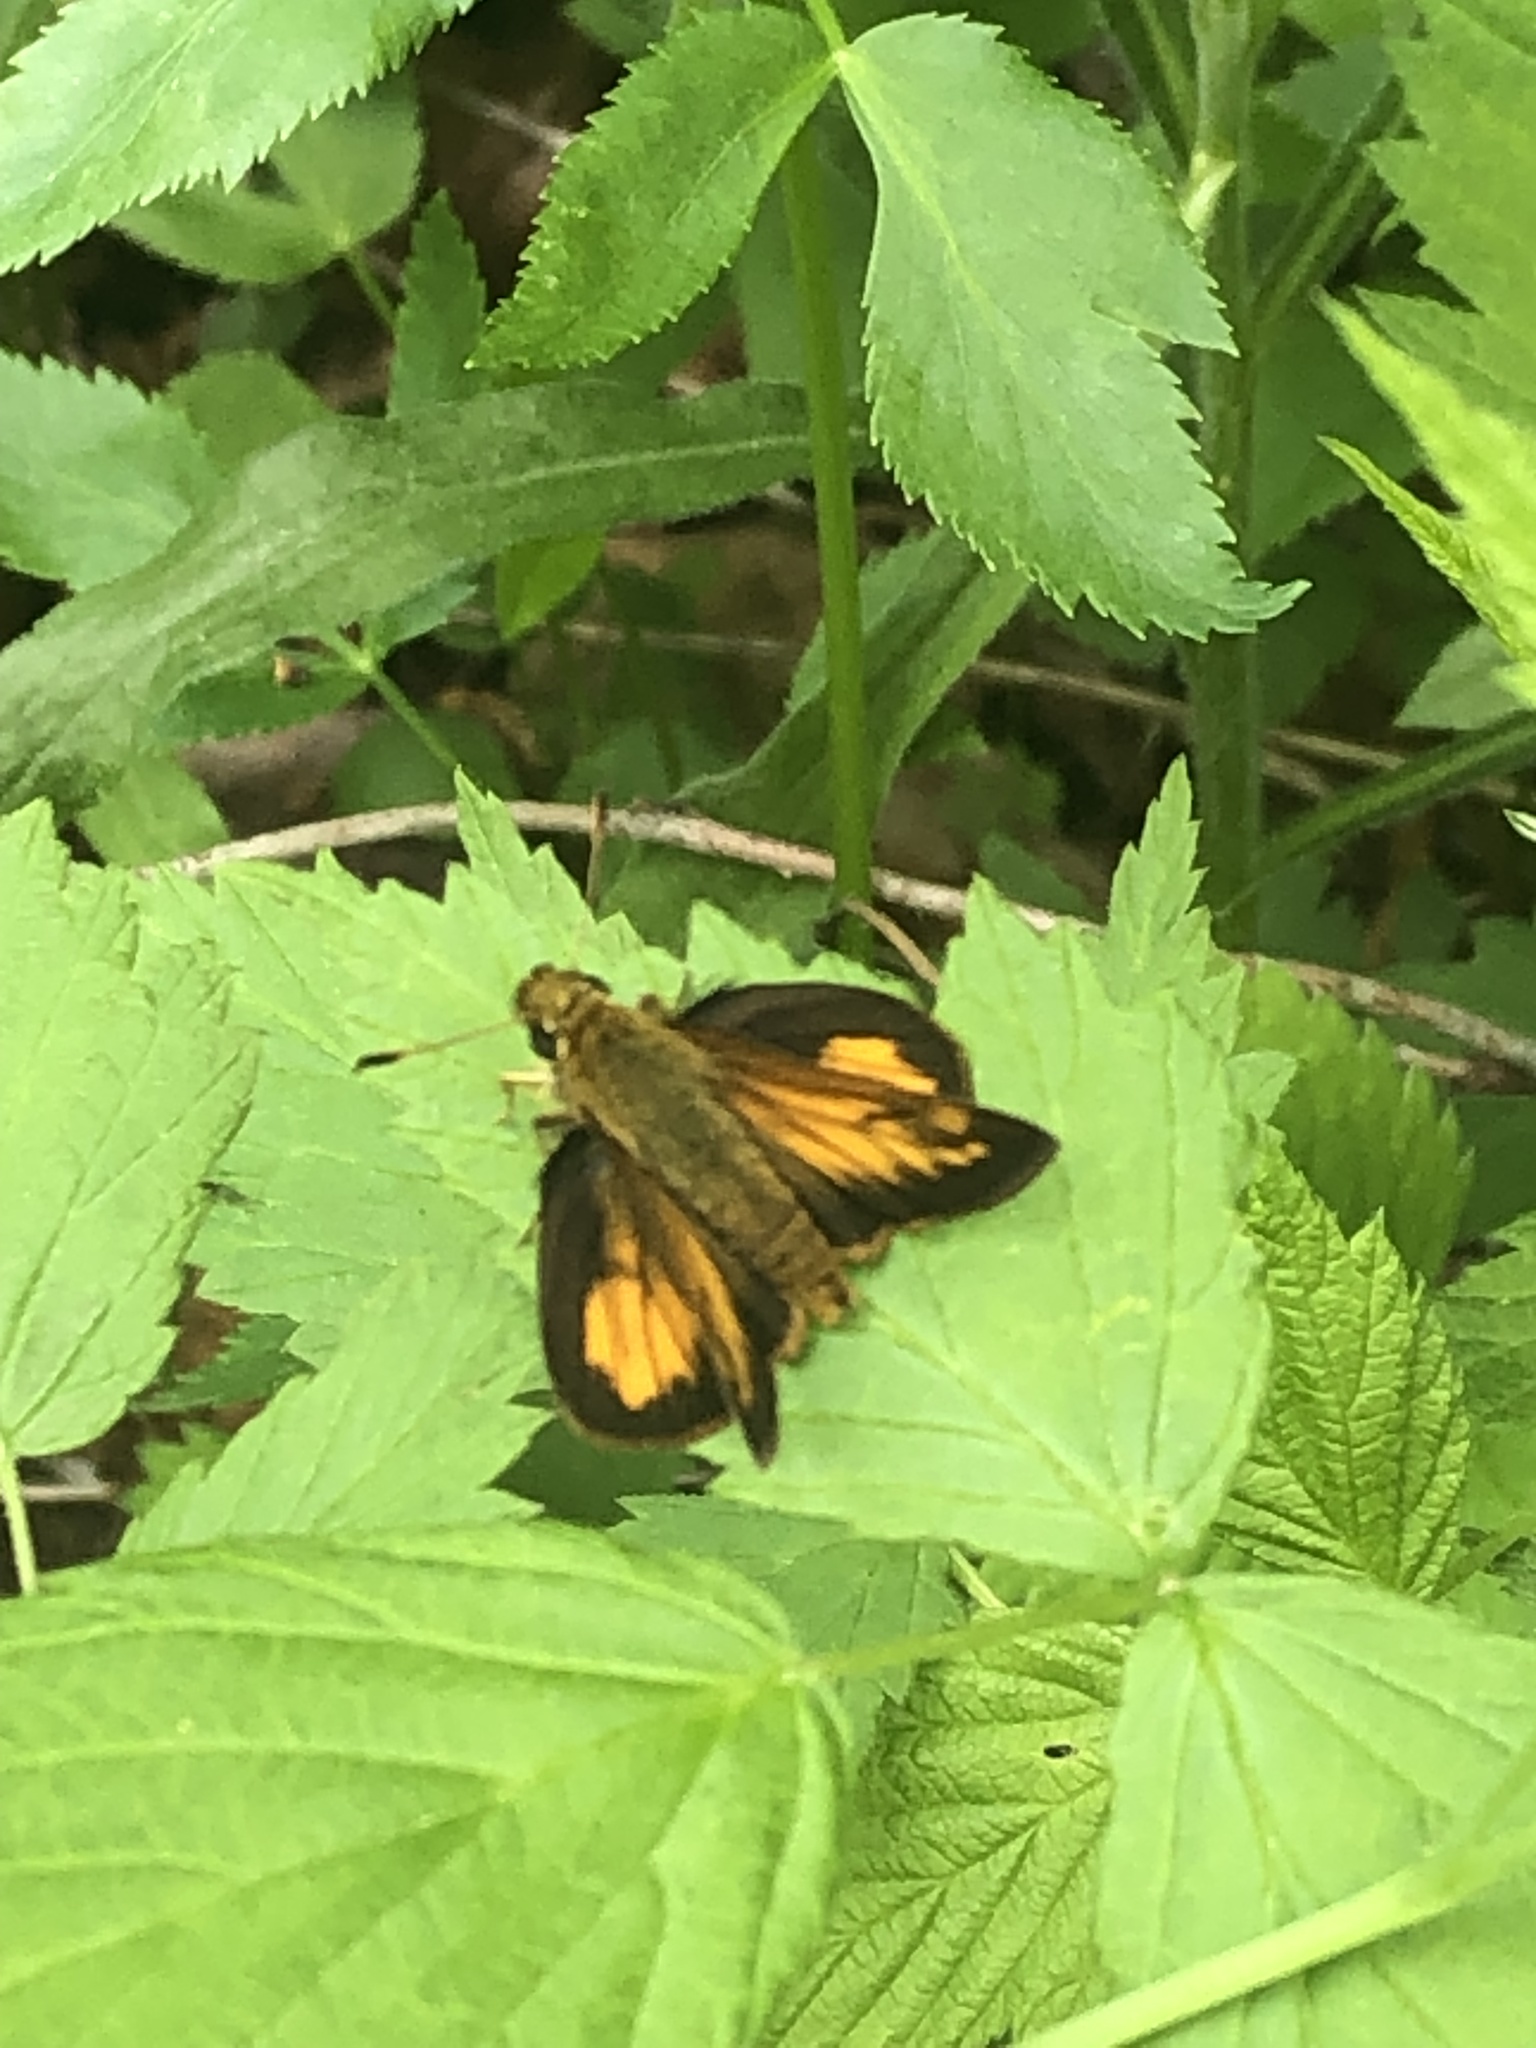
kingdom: Animalia
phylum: Arthropoda
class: Insecta
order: Lepidoptera
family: Hesperiidae
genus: Lon
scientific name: Lon hobomok
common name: Hobomok skipper
